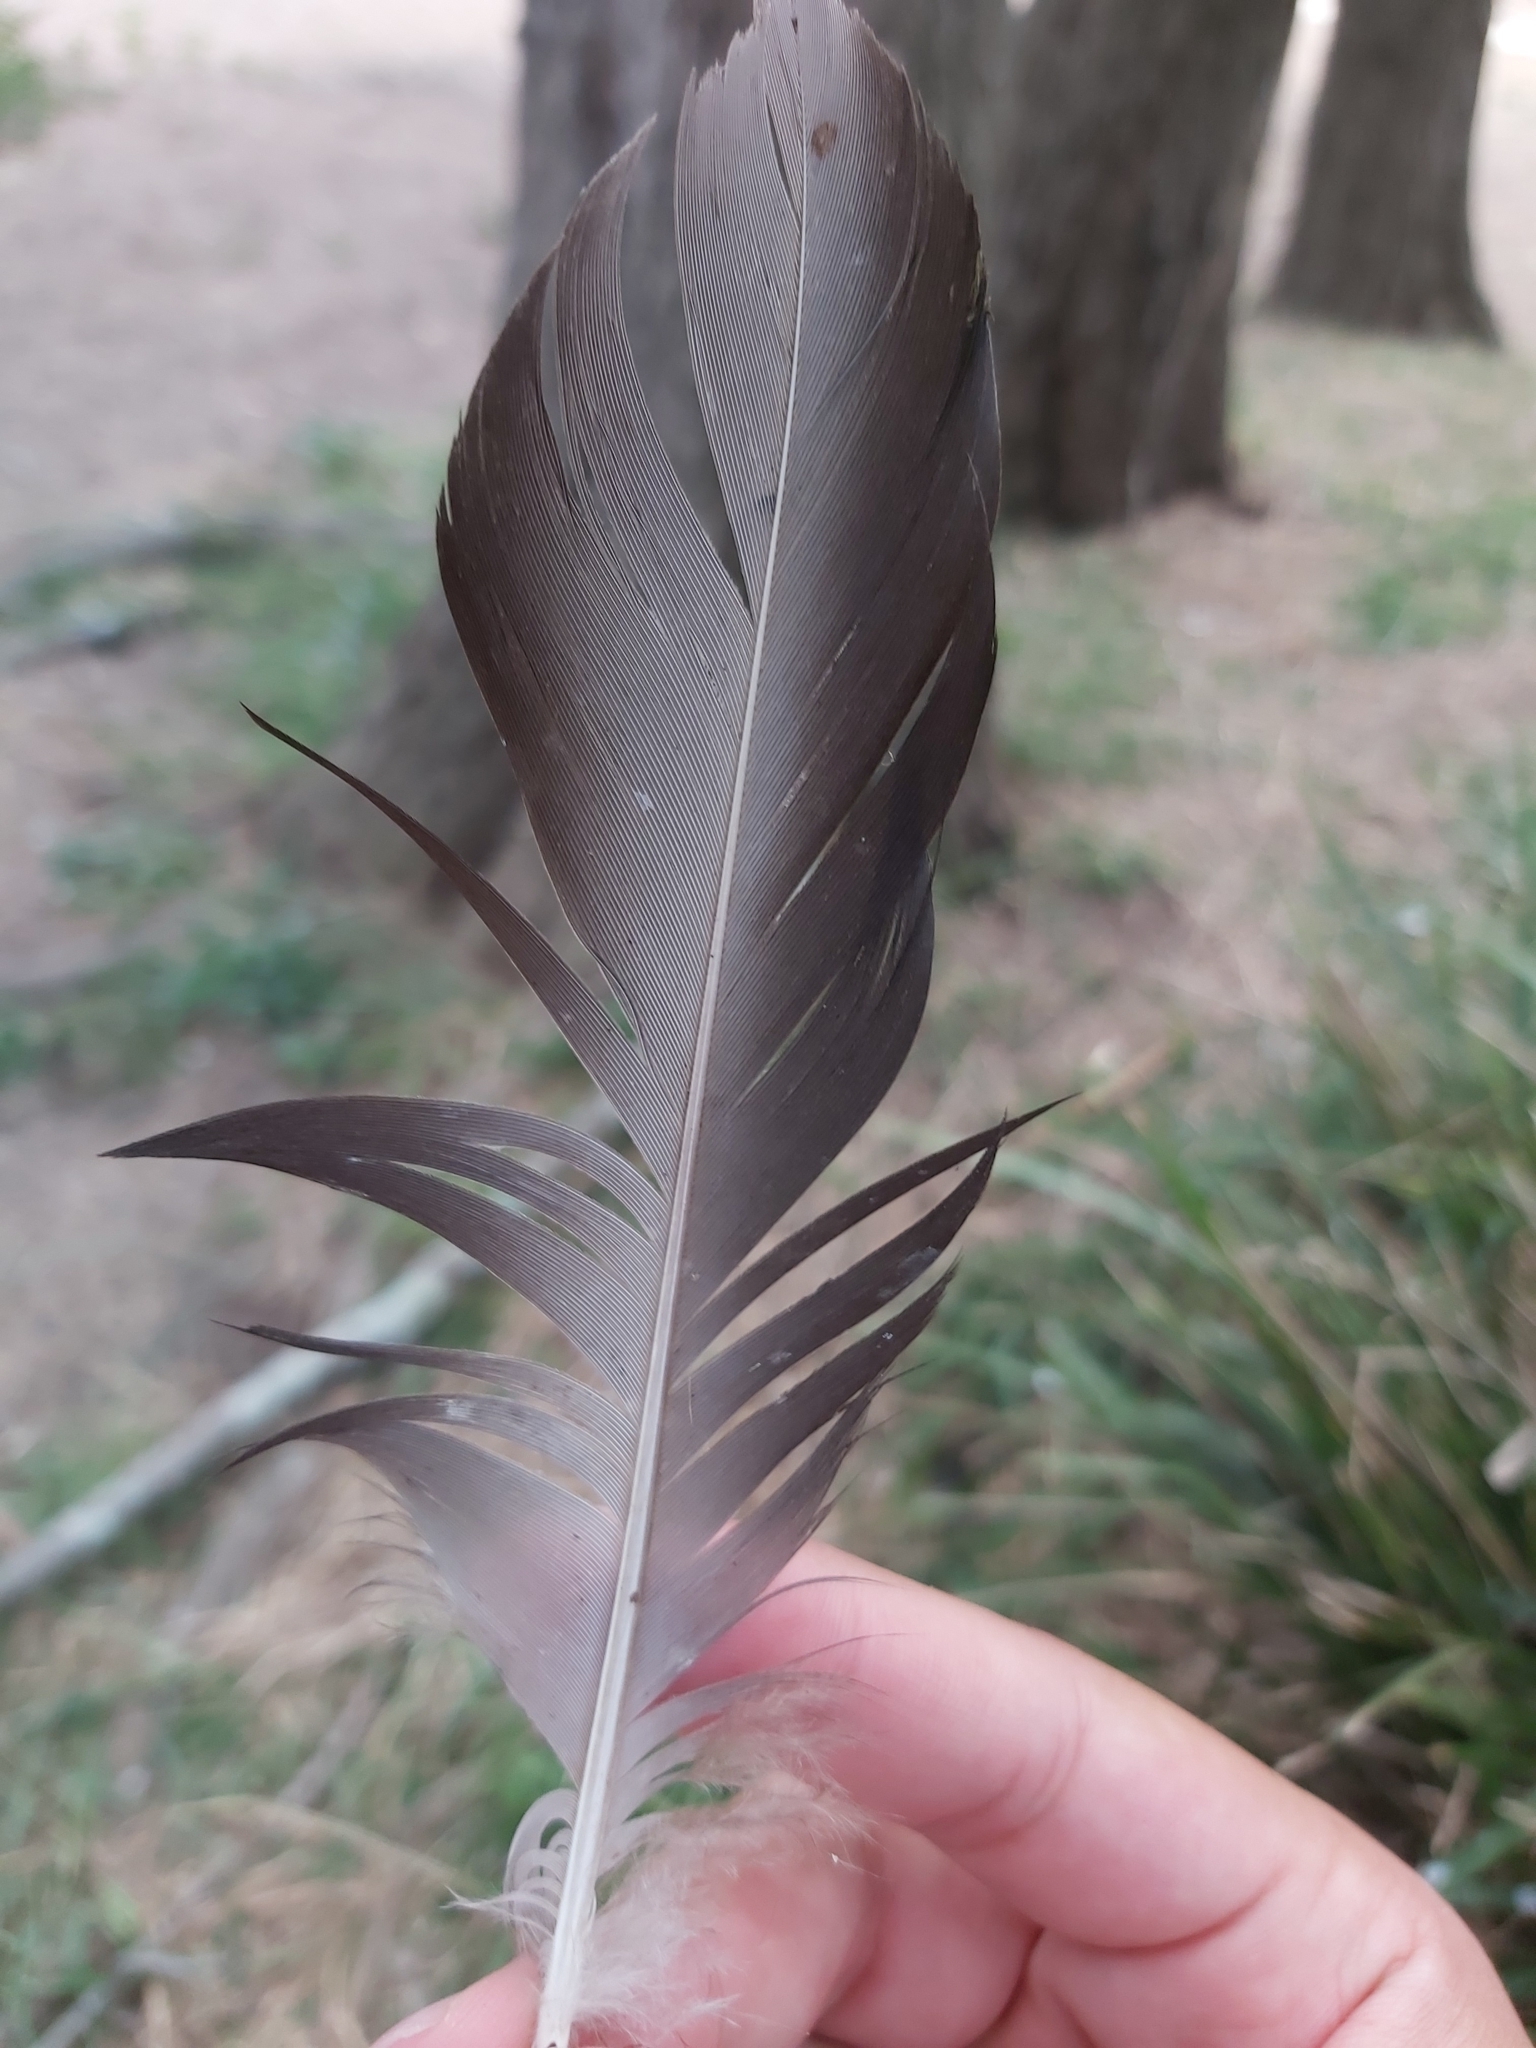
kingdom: Animalia
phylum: Chordata
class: Aves
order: Anseriformes
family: Anatidae
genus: Anas
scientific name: Anas superciliosa
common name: Pacific black duck
